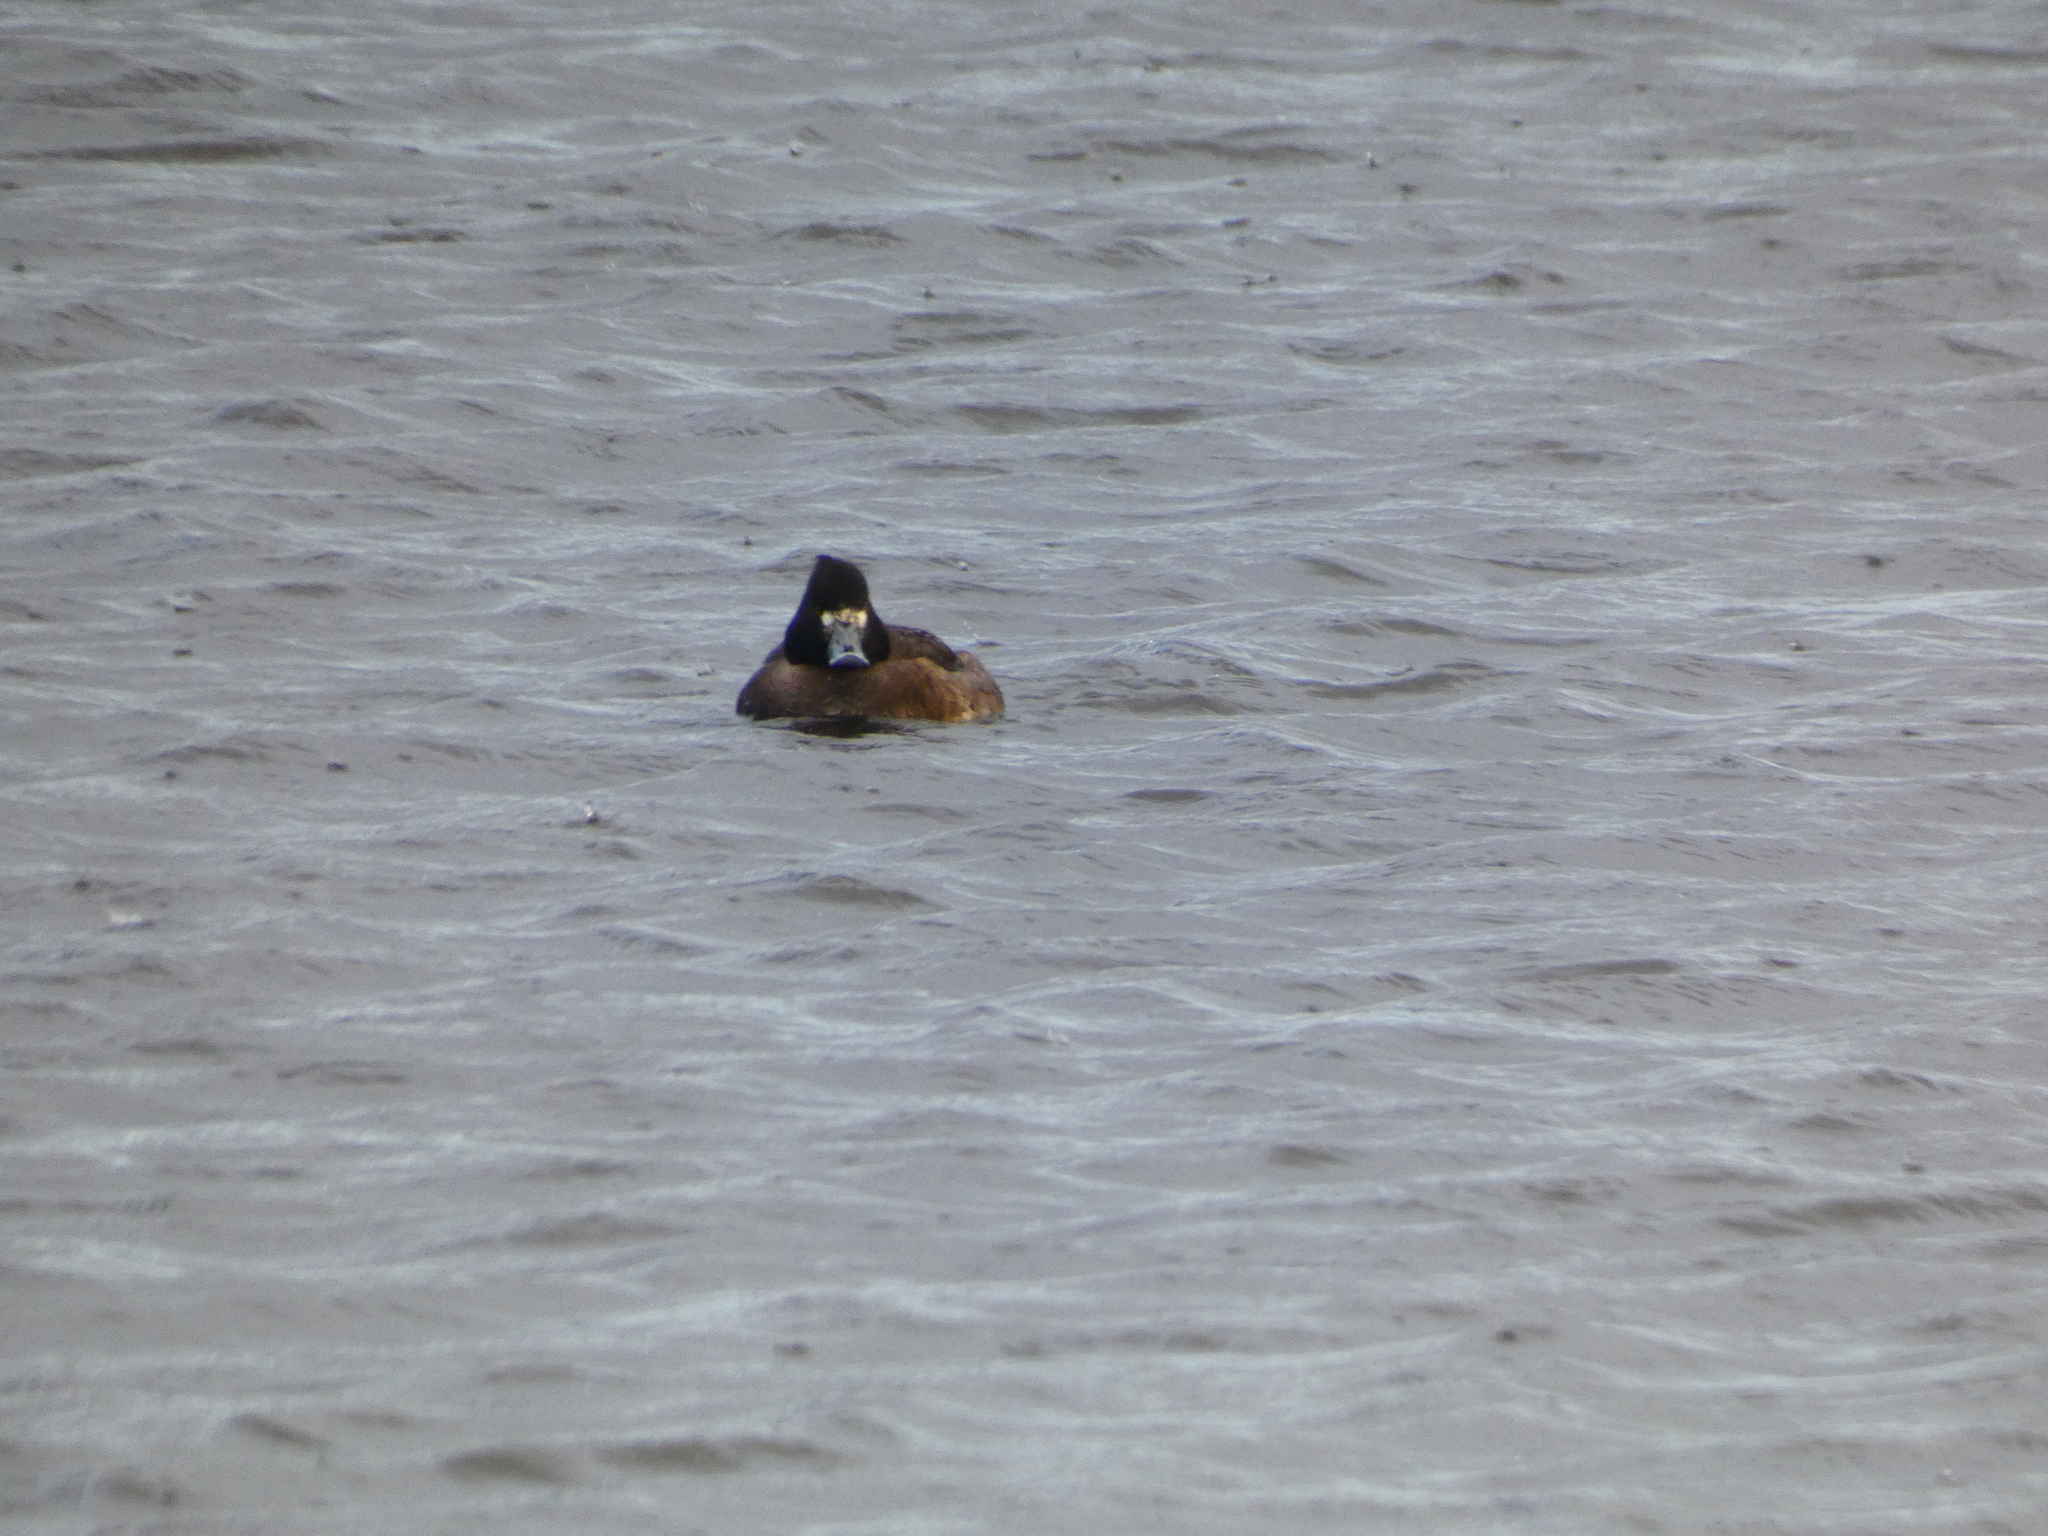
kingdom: Animalia
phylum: Chordata
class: Aves
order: Anseriformes
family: Anatidae
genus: Aythya
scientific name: Aythya fuligula
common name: Tufted duck
